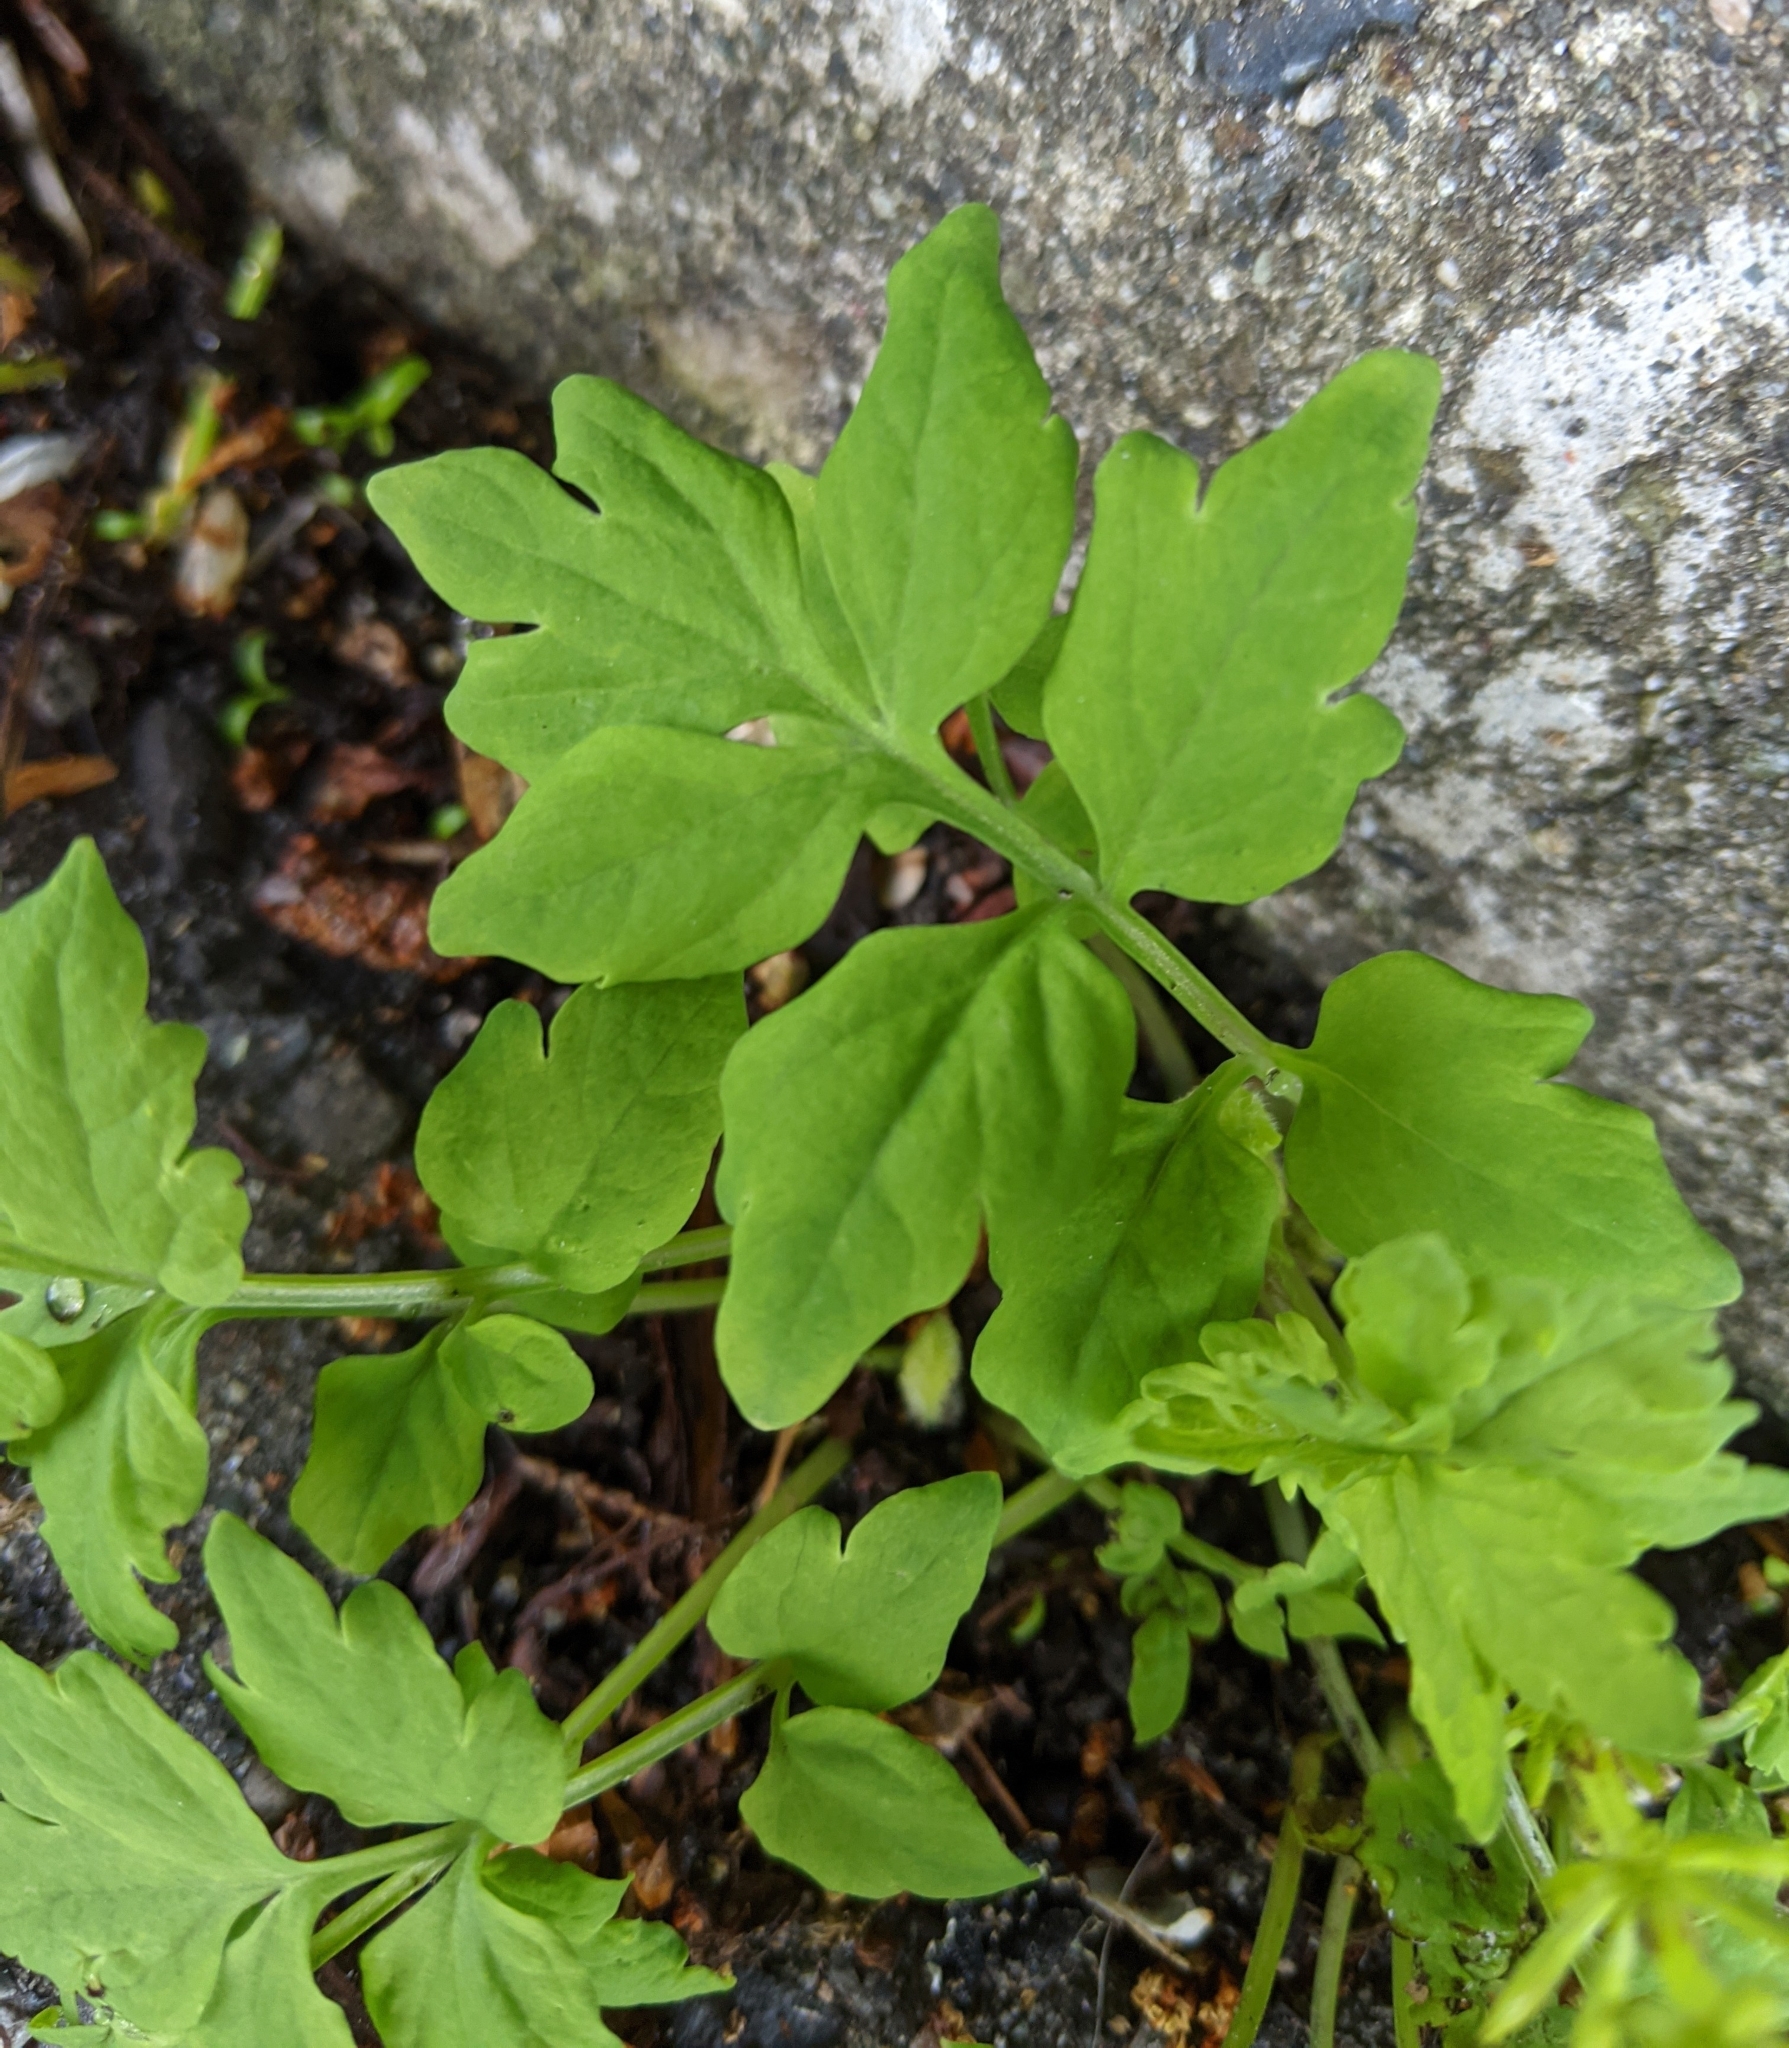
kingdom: Plantae
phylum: Tracheophyta
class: Magnoliopsida
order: Ranunculales
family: Papaveraceae
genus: Papaver
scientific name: Papaver cambricum
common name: Poppy
